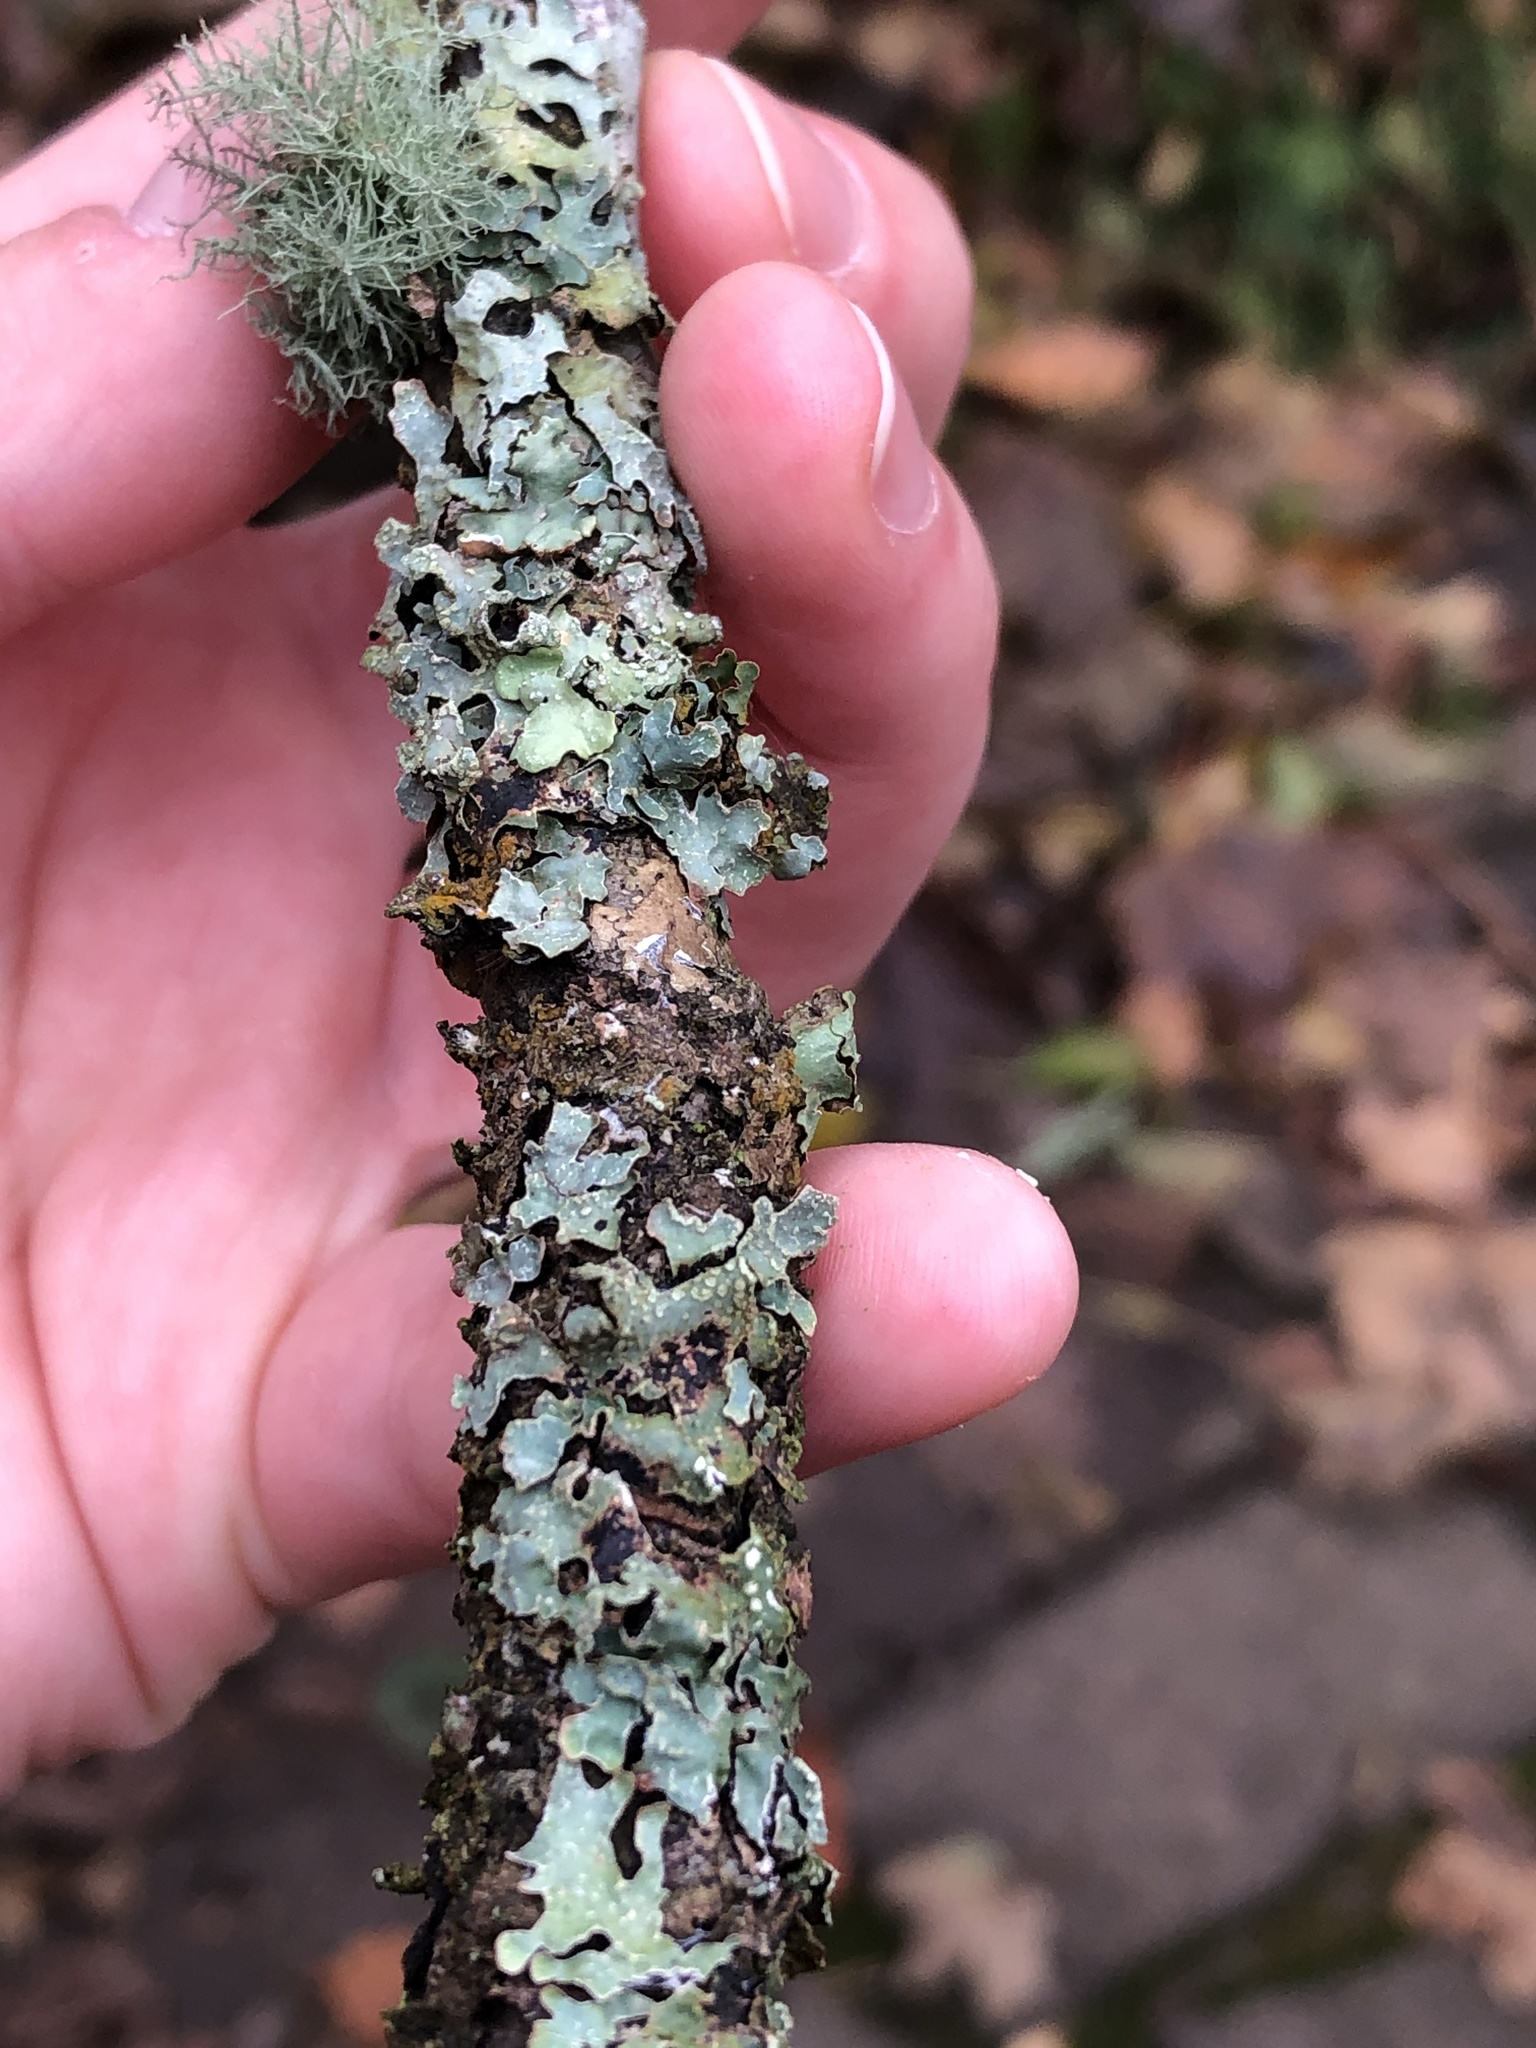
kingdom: Fungi
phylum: Ascomycota
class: Lecanoromycetes
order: Lecanorales
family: Parmeliaceae
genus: Parmelia
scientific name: Parmelia sulcata
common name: Netted shield lichen
